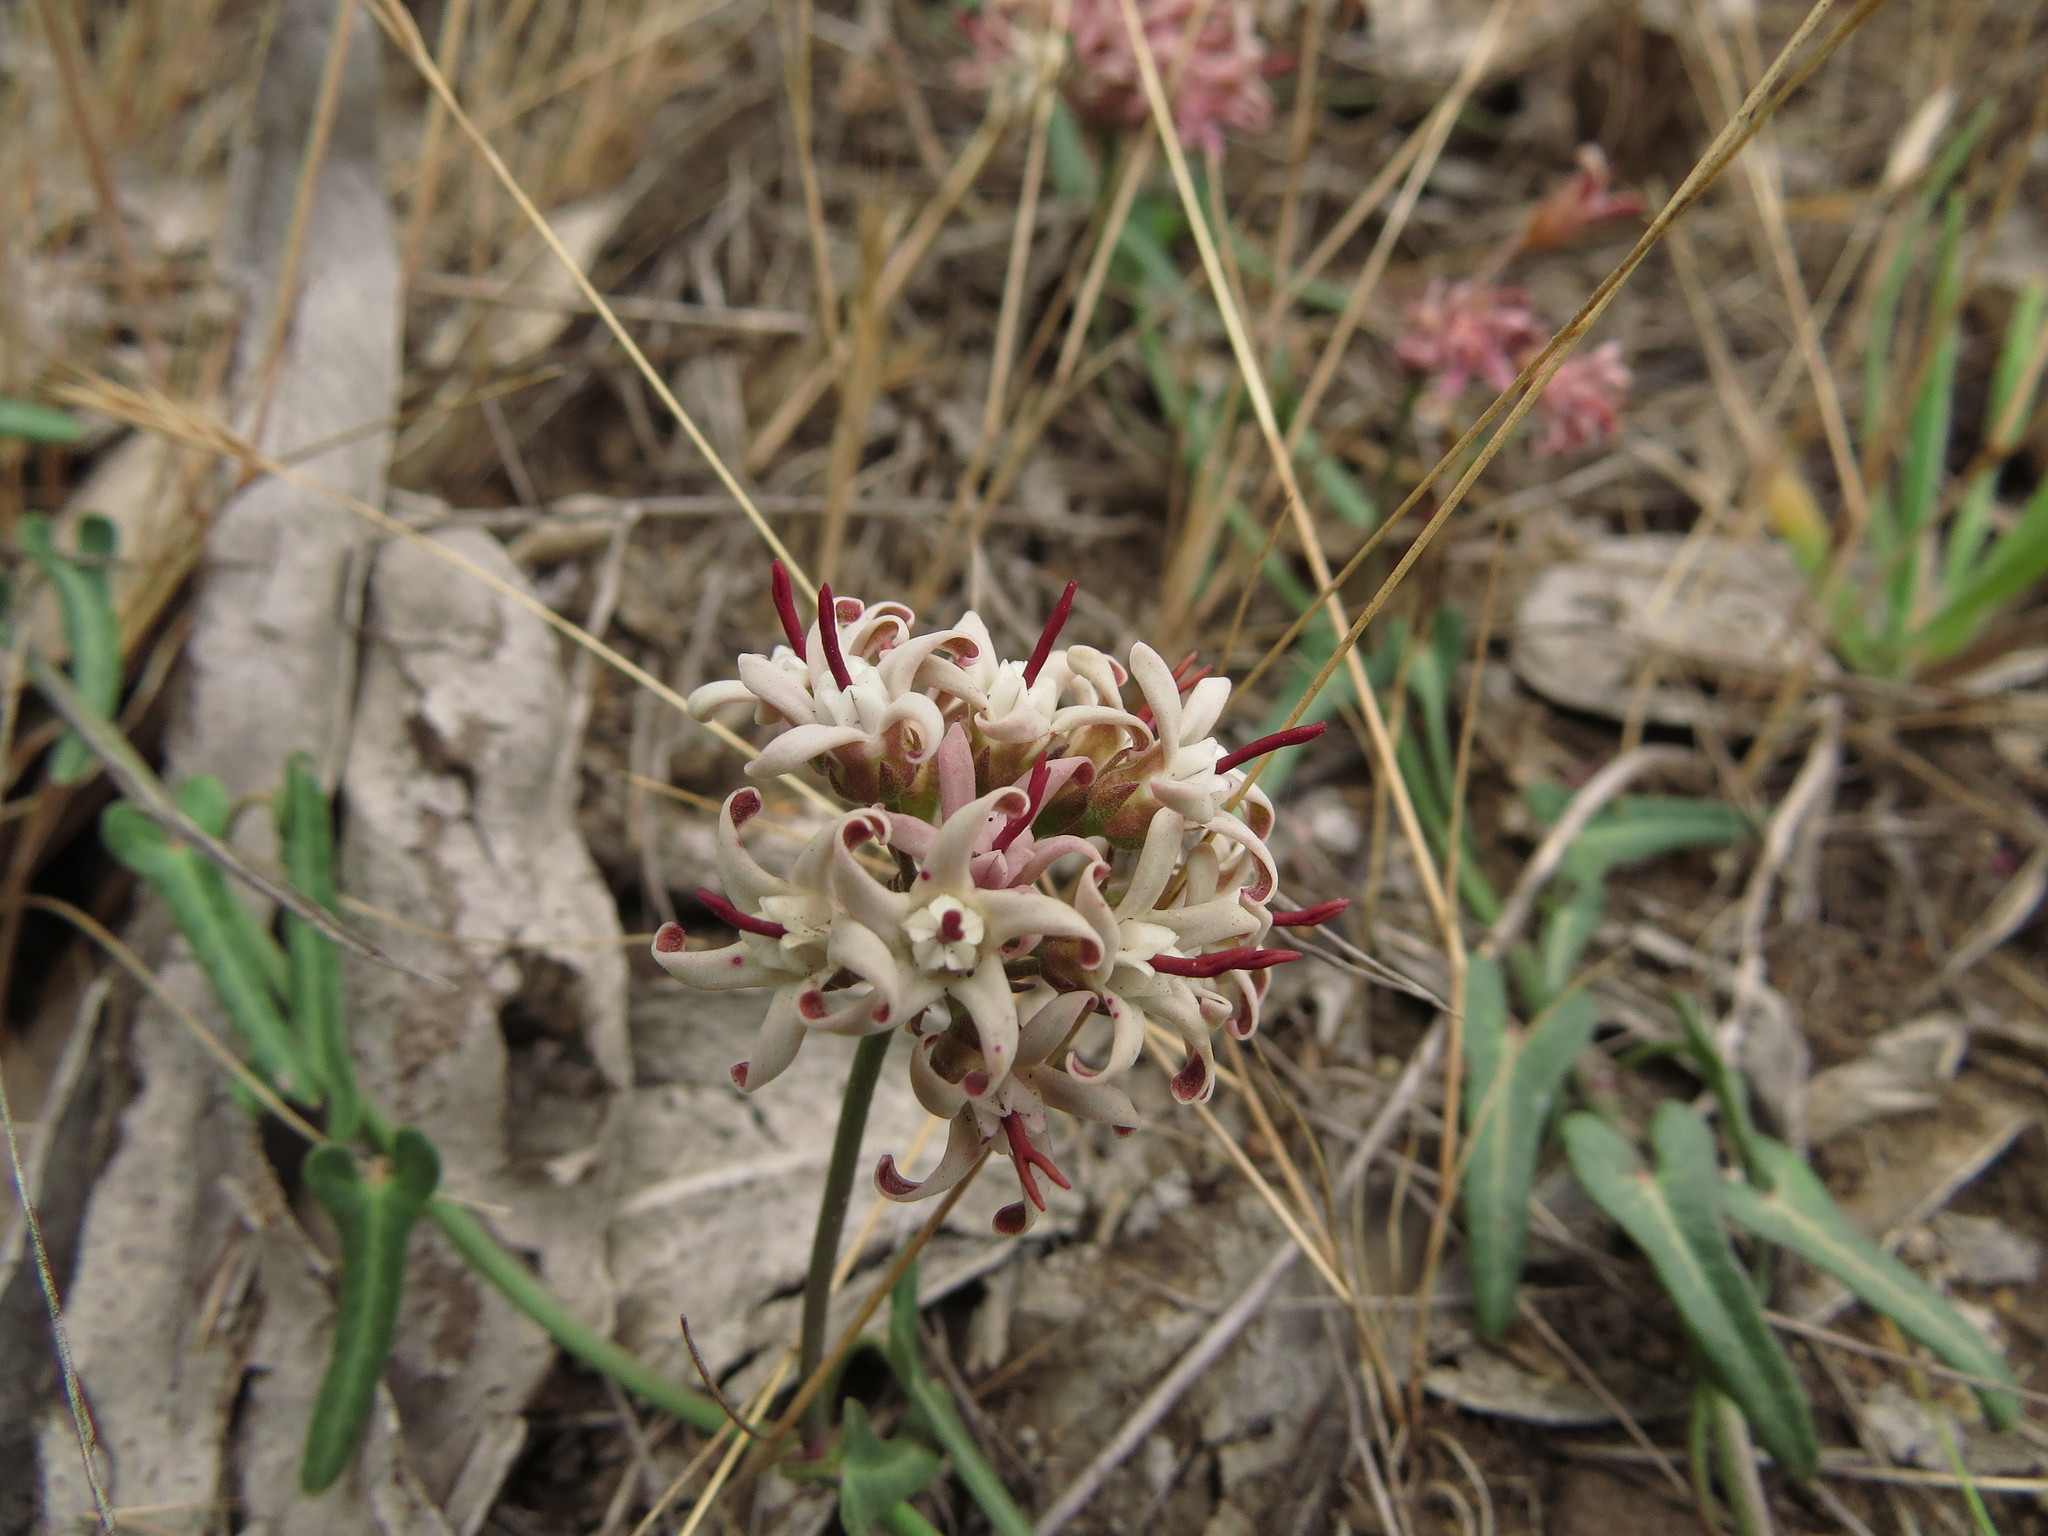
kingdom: Plantae
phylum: Tracheophyta
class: Magnoliopsida
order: Gentianales
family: Apocynaceae
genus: Tweedia
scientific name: Tweedia birostrata
